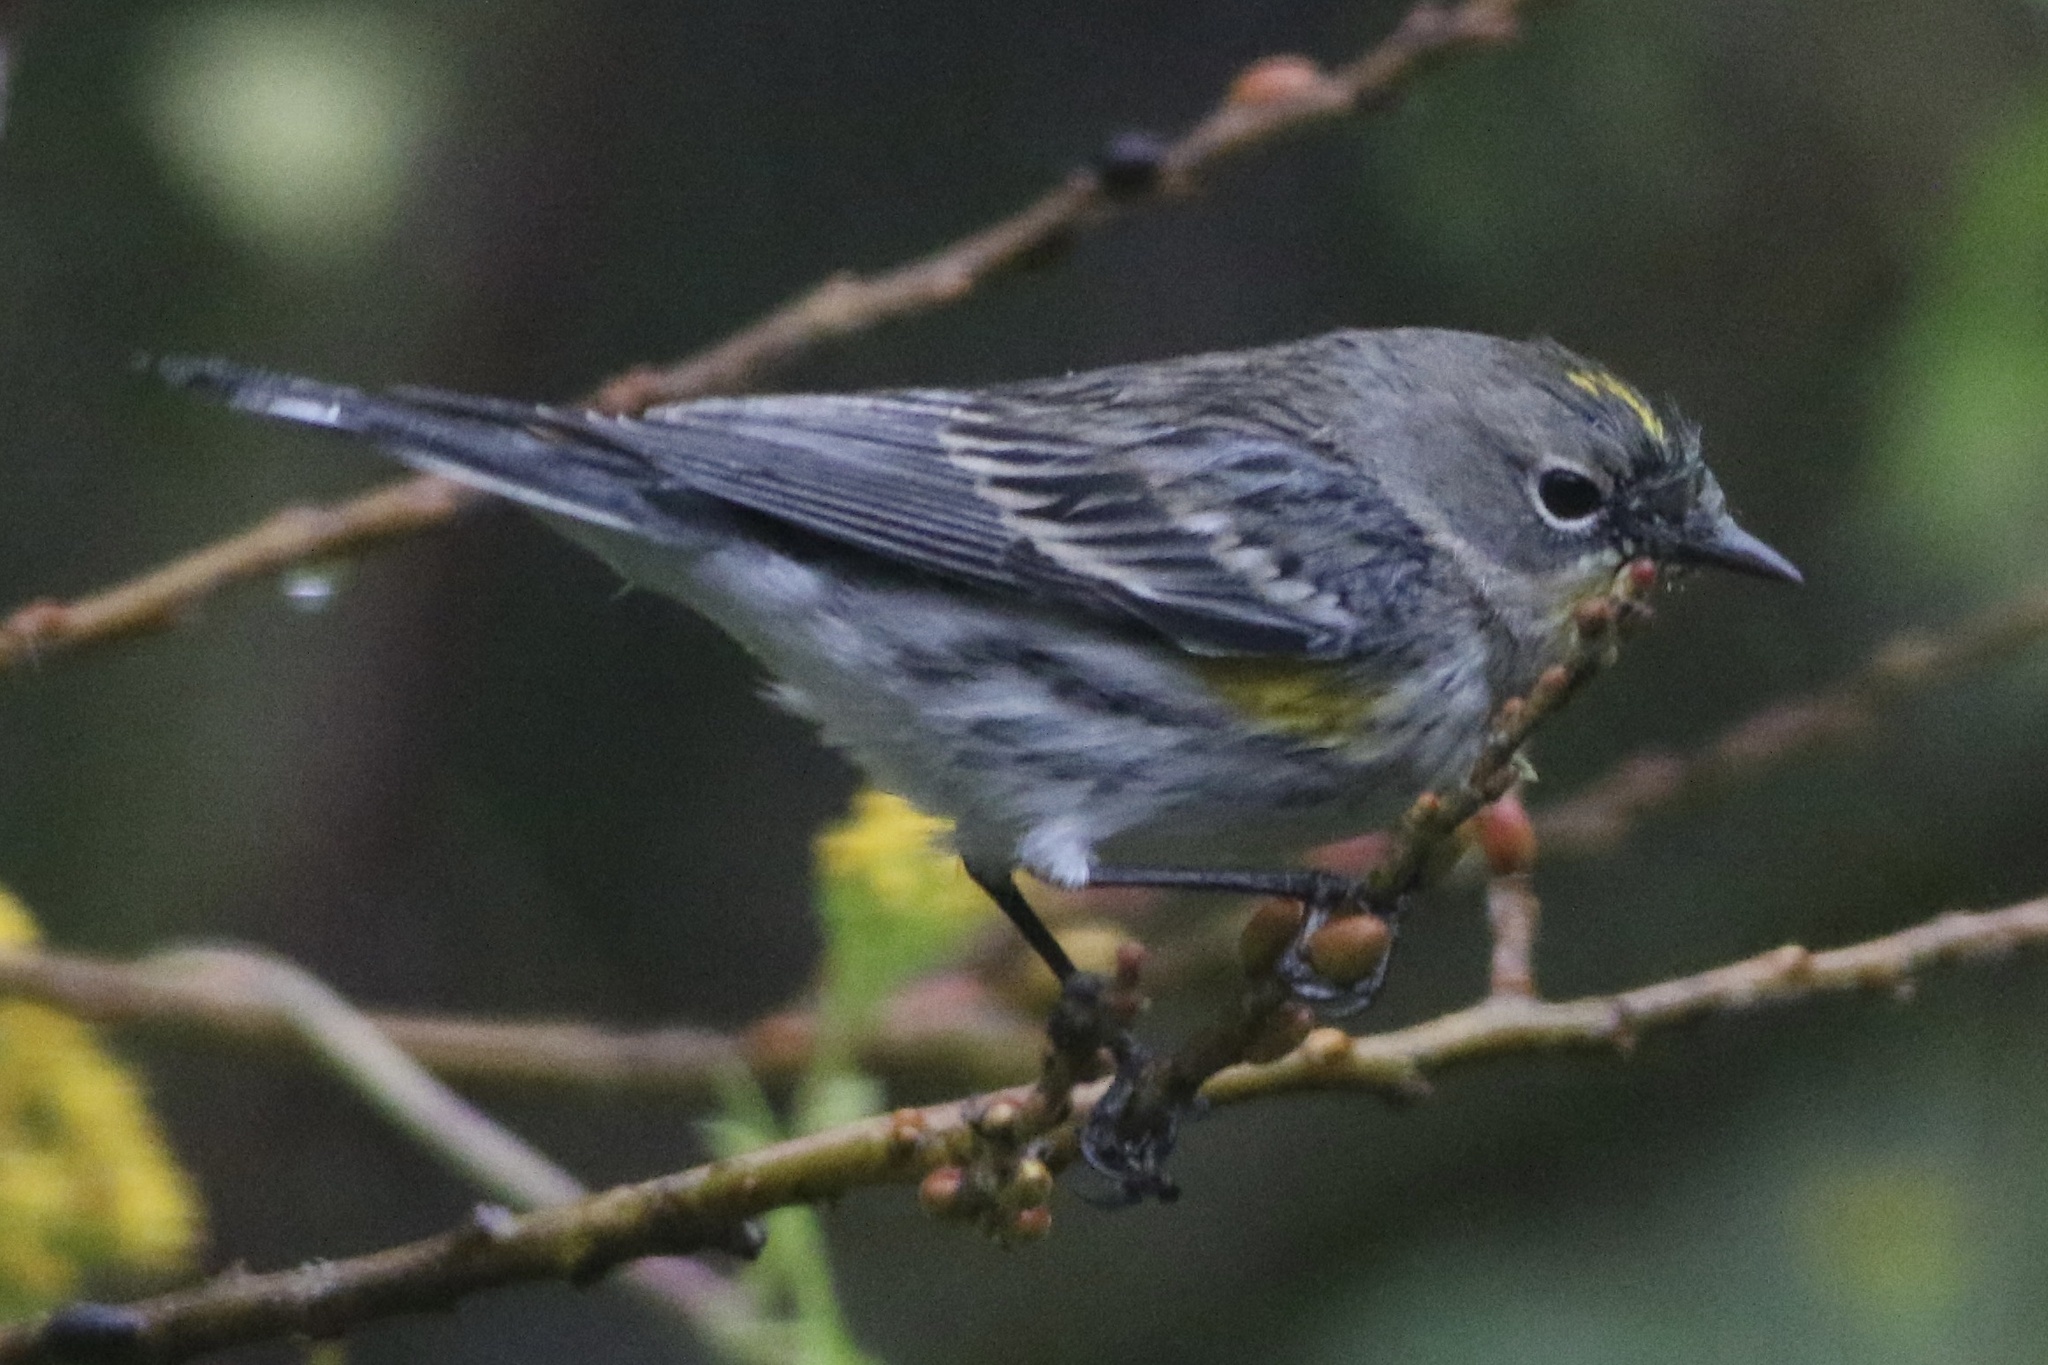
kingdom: Animalia
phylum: Chordata
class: Aves
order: Passeriformes
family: Parulidae
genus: Setophaga
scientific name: Setophaga coronata
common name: Myrtle warbler
